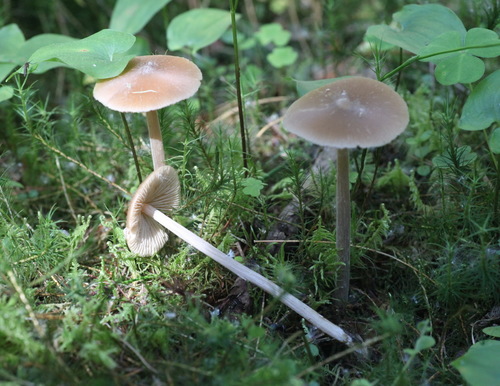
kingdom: Fungi
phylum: Basidiomycota
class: Agaricomycetes
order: Agaricales
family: Entolomataceae
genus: Entoloma
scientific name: Entoloma lanuginosipes
